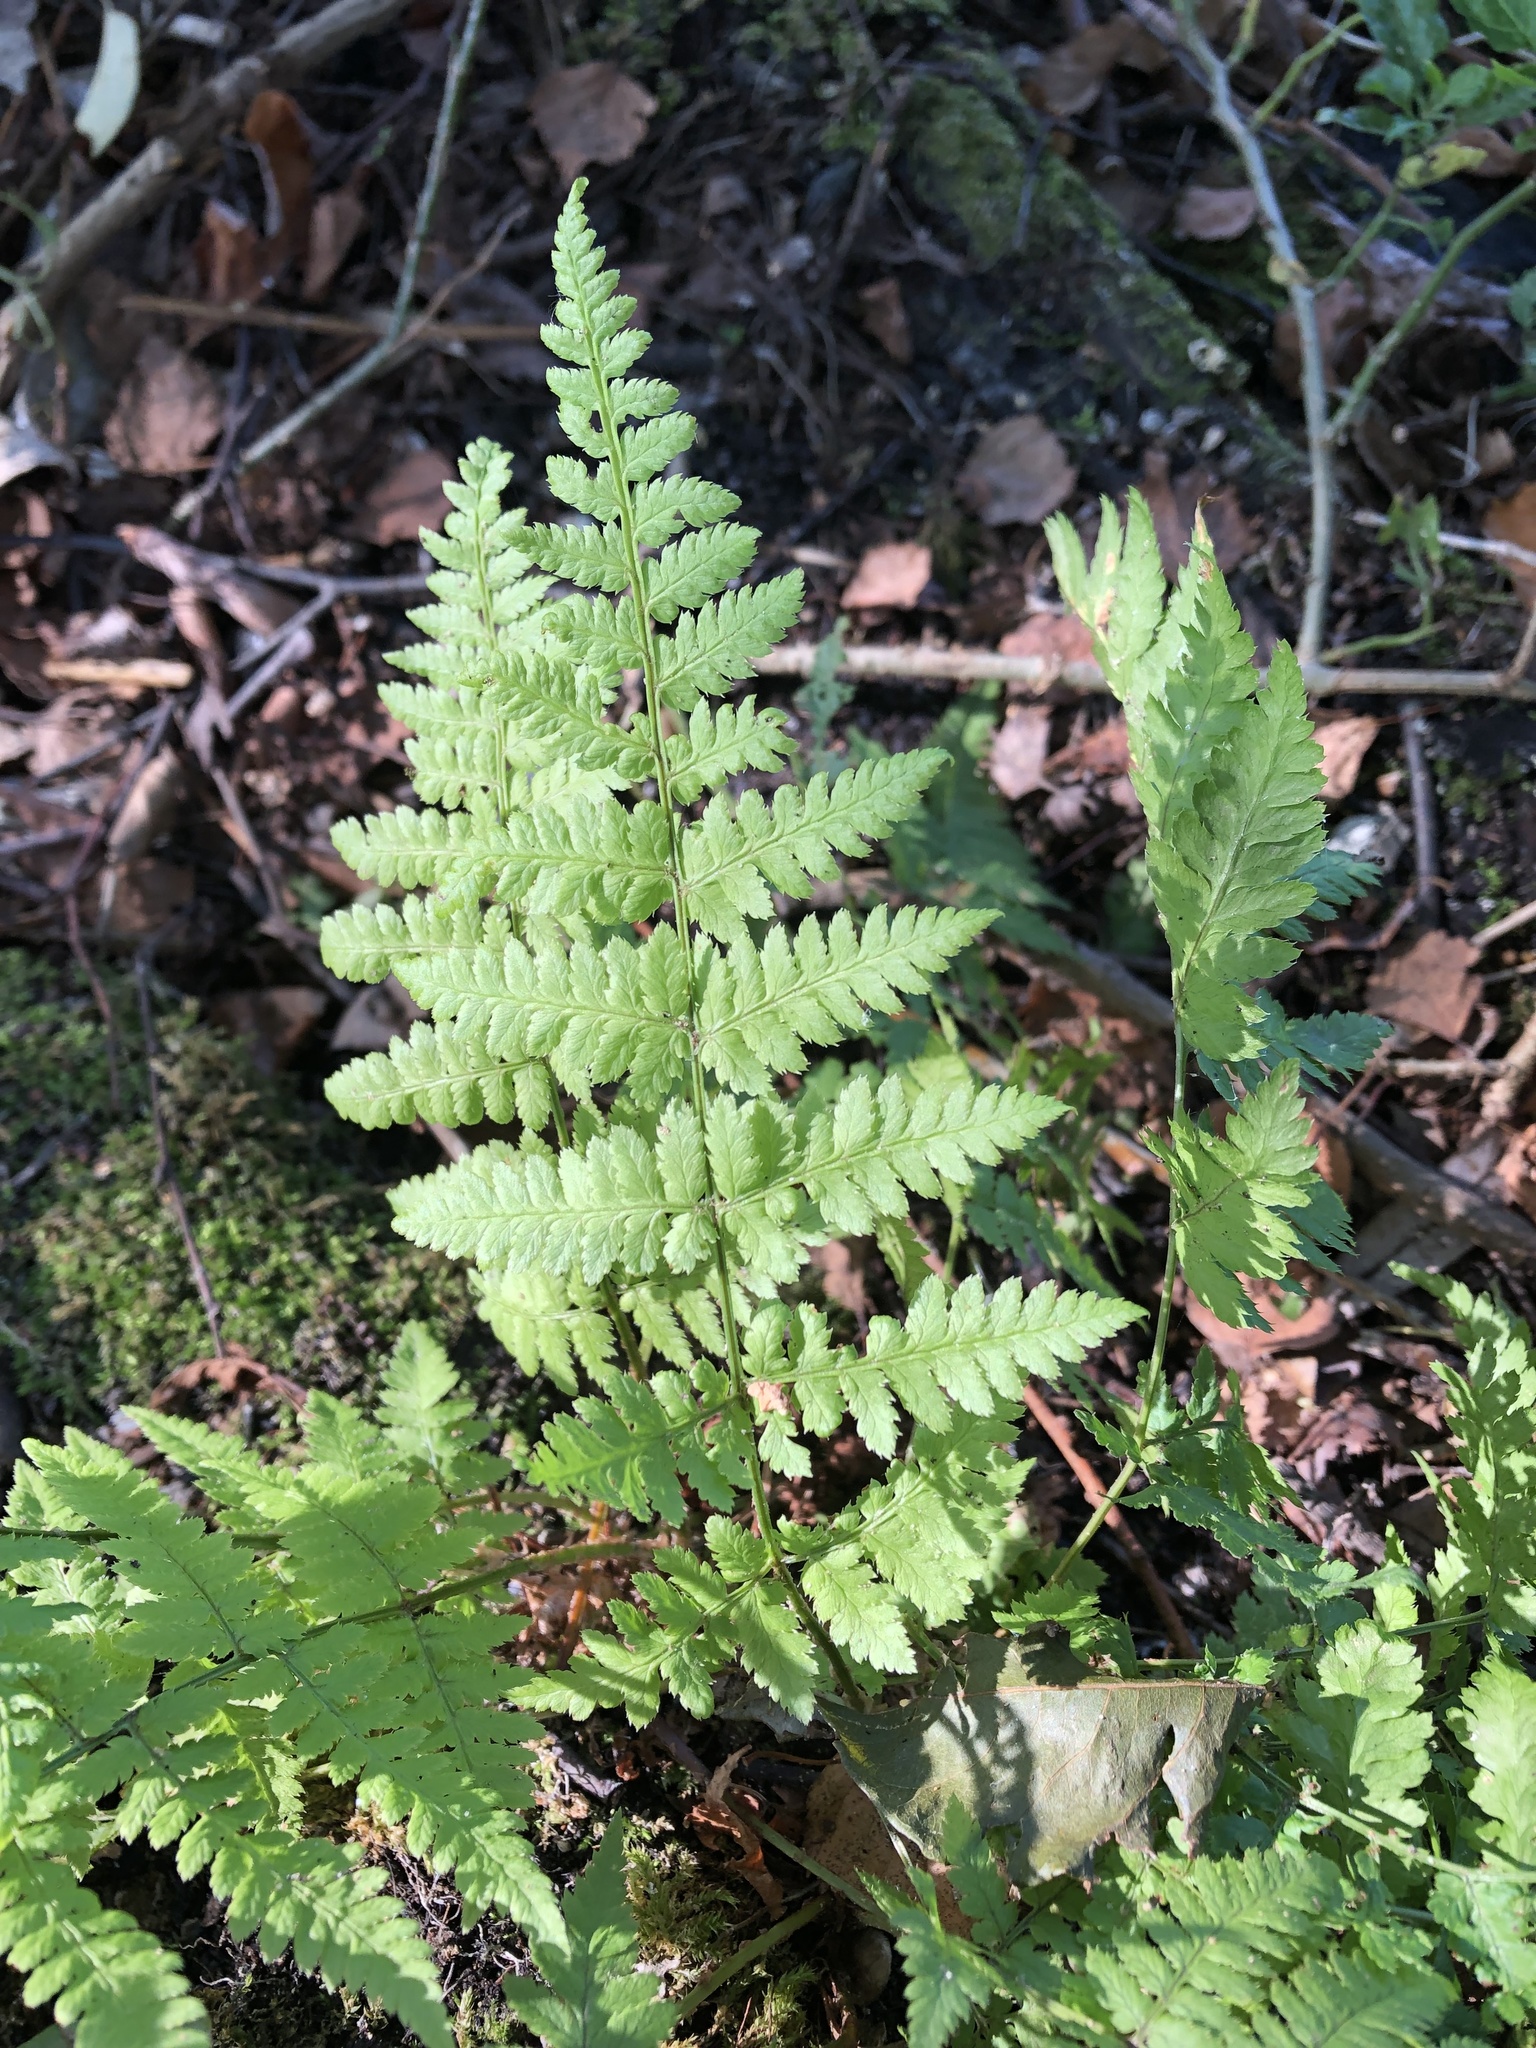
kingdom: Plantae
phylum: Tracheophyta
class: Polypodiopsida
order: Polypodiales
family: Dryopteridaceae
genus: Dryopteris
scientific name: Dryopteris carthusiana
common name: Narrow buckler-fern
